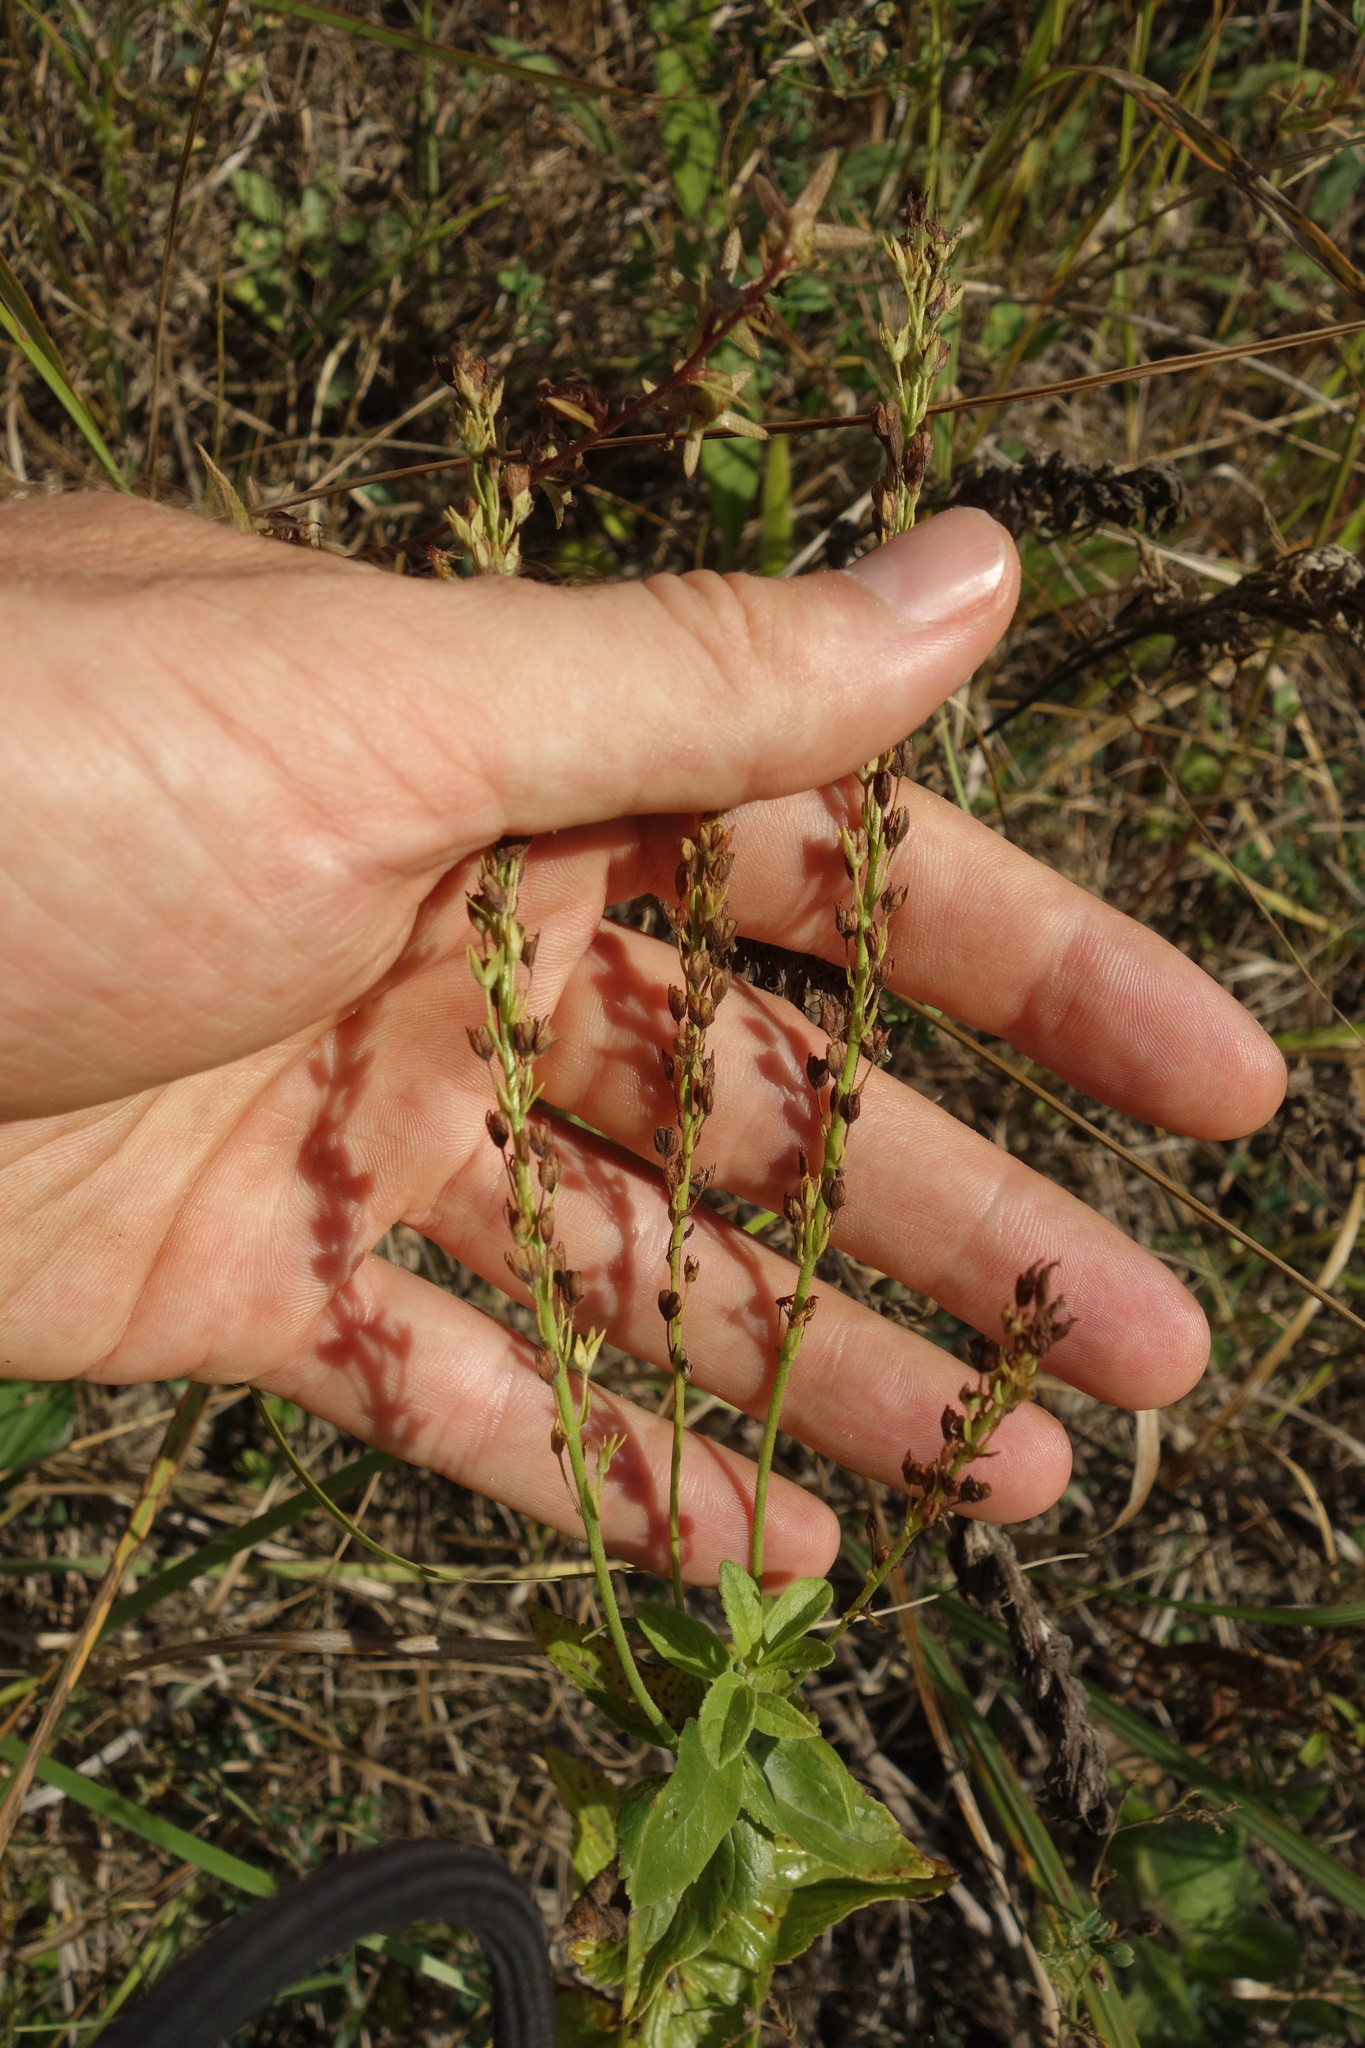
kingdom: Plantae
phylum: Tracheophyta
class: Magnoliopsida
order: Lamiales
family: Plantaginaceae
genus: Veronica
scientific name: Veronica teucrium
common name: Large speedwell
